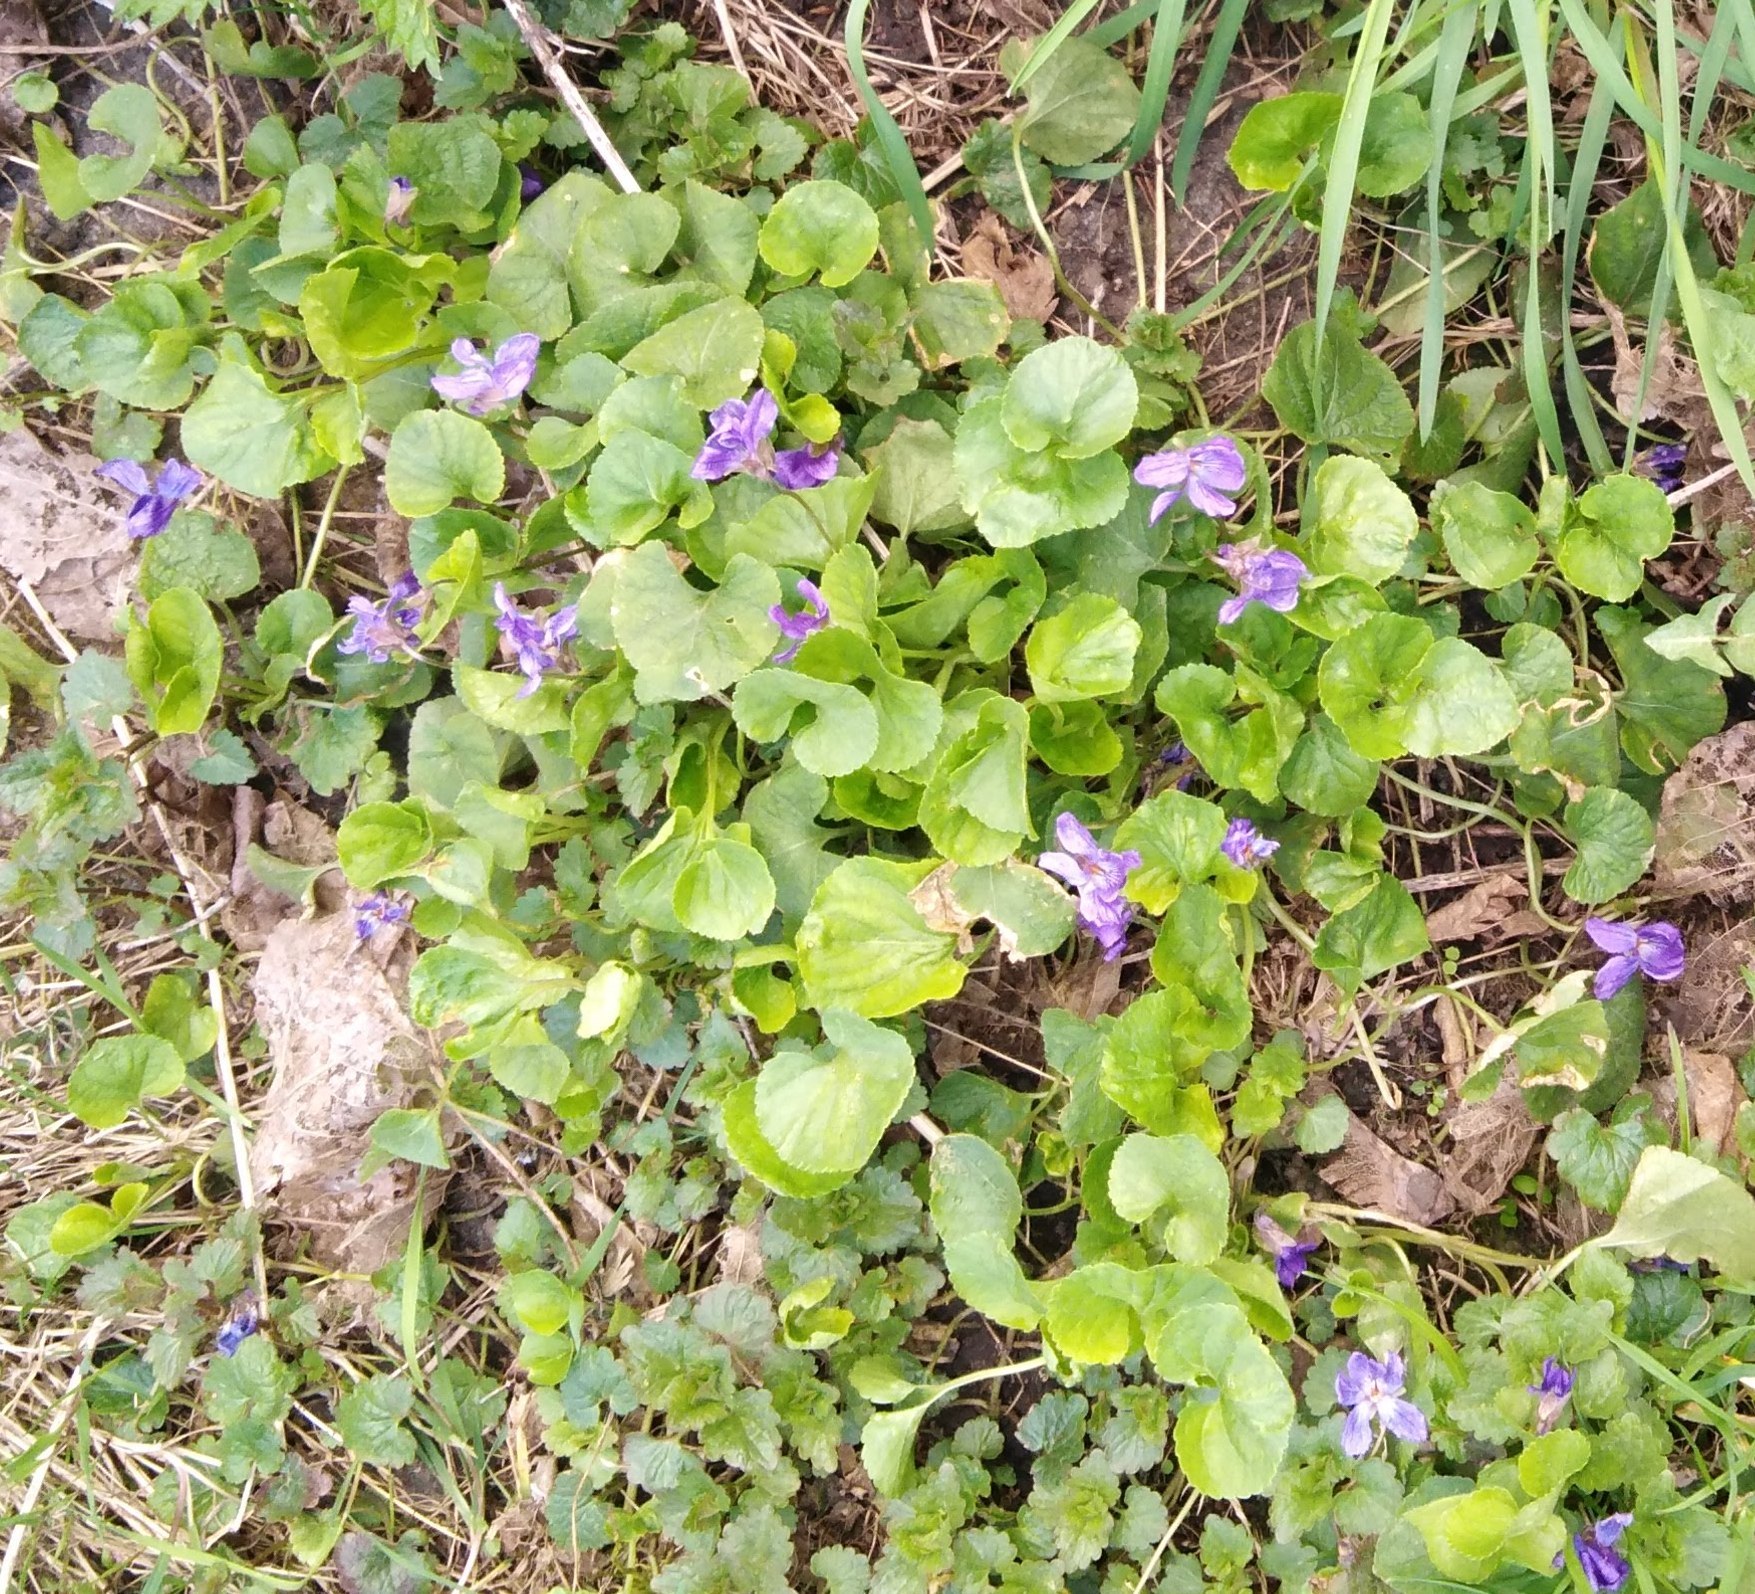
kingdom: Plantae
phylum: Tracheophyta
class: Magnoliopsida
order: Malpighiales
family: Violaceae
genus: Viola
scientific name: Viola odorata
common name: Sweet violet
